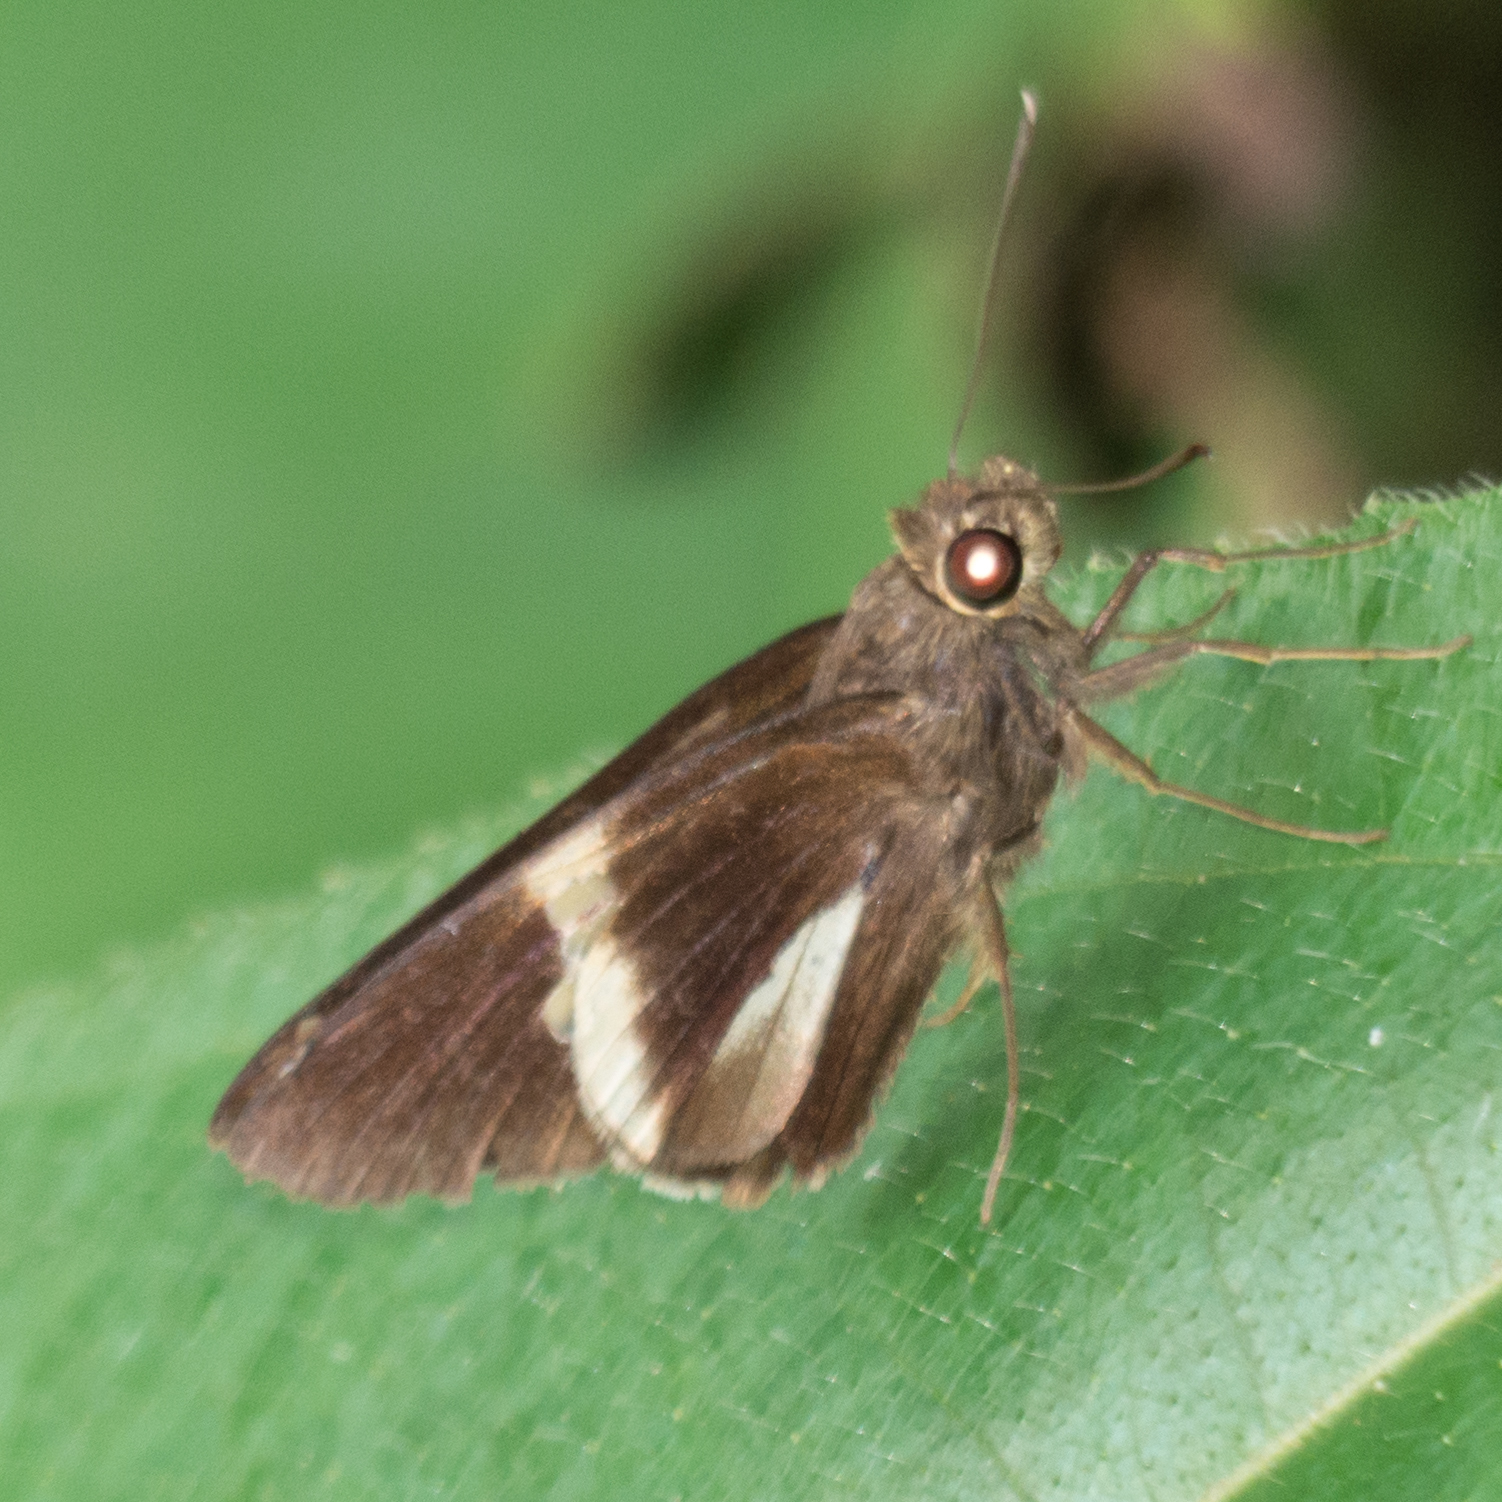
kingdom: Animalia
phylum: Arthropoda
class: Insecta
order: Lepidoptera
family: Hesperiidae
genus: Lotongus
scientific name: Lotongus calathus
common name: White-tipped palmer
